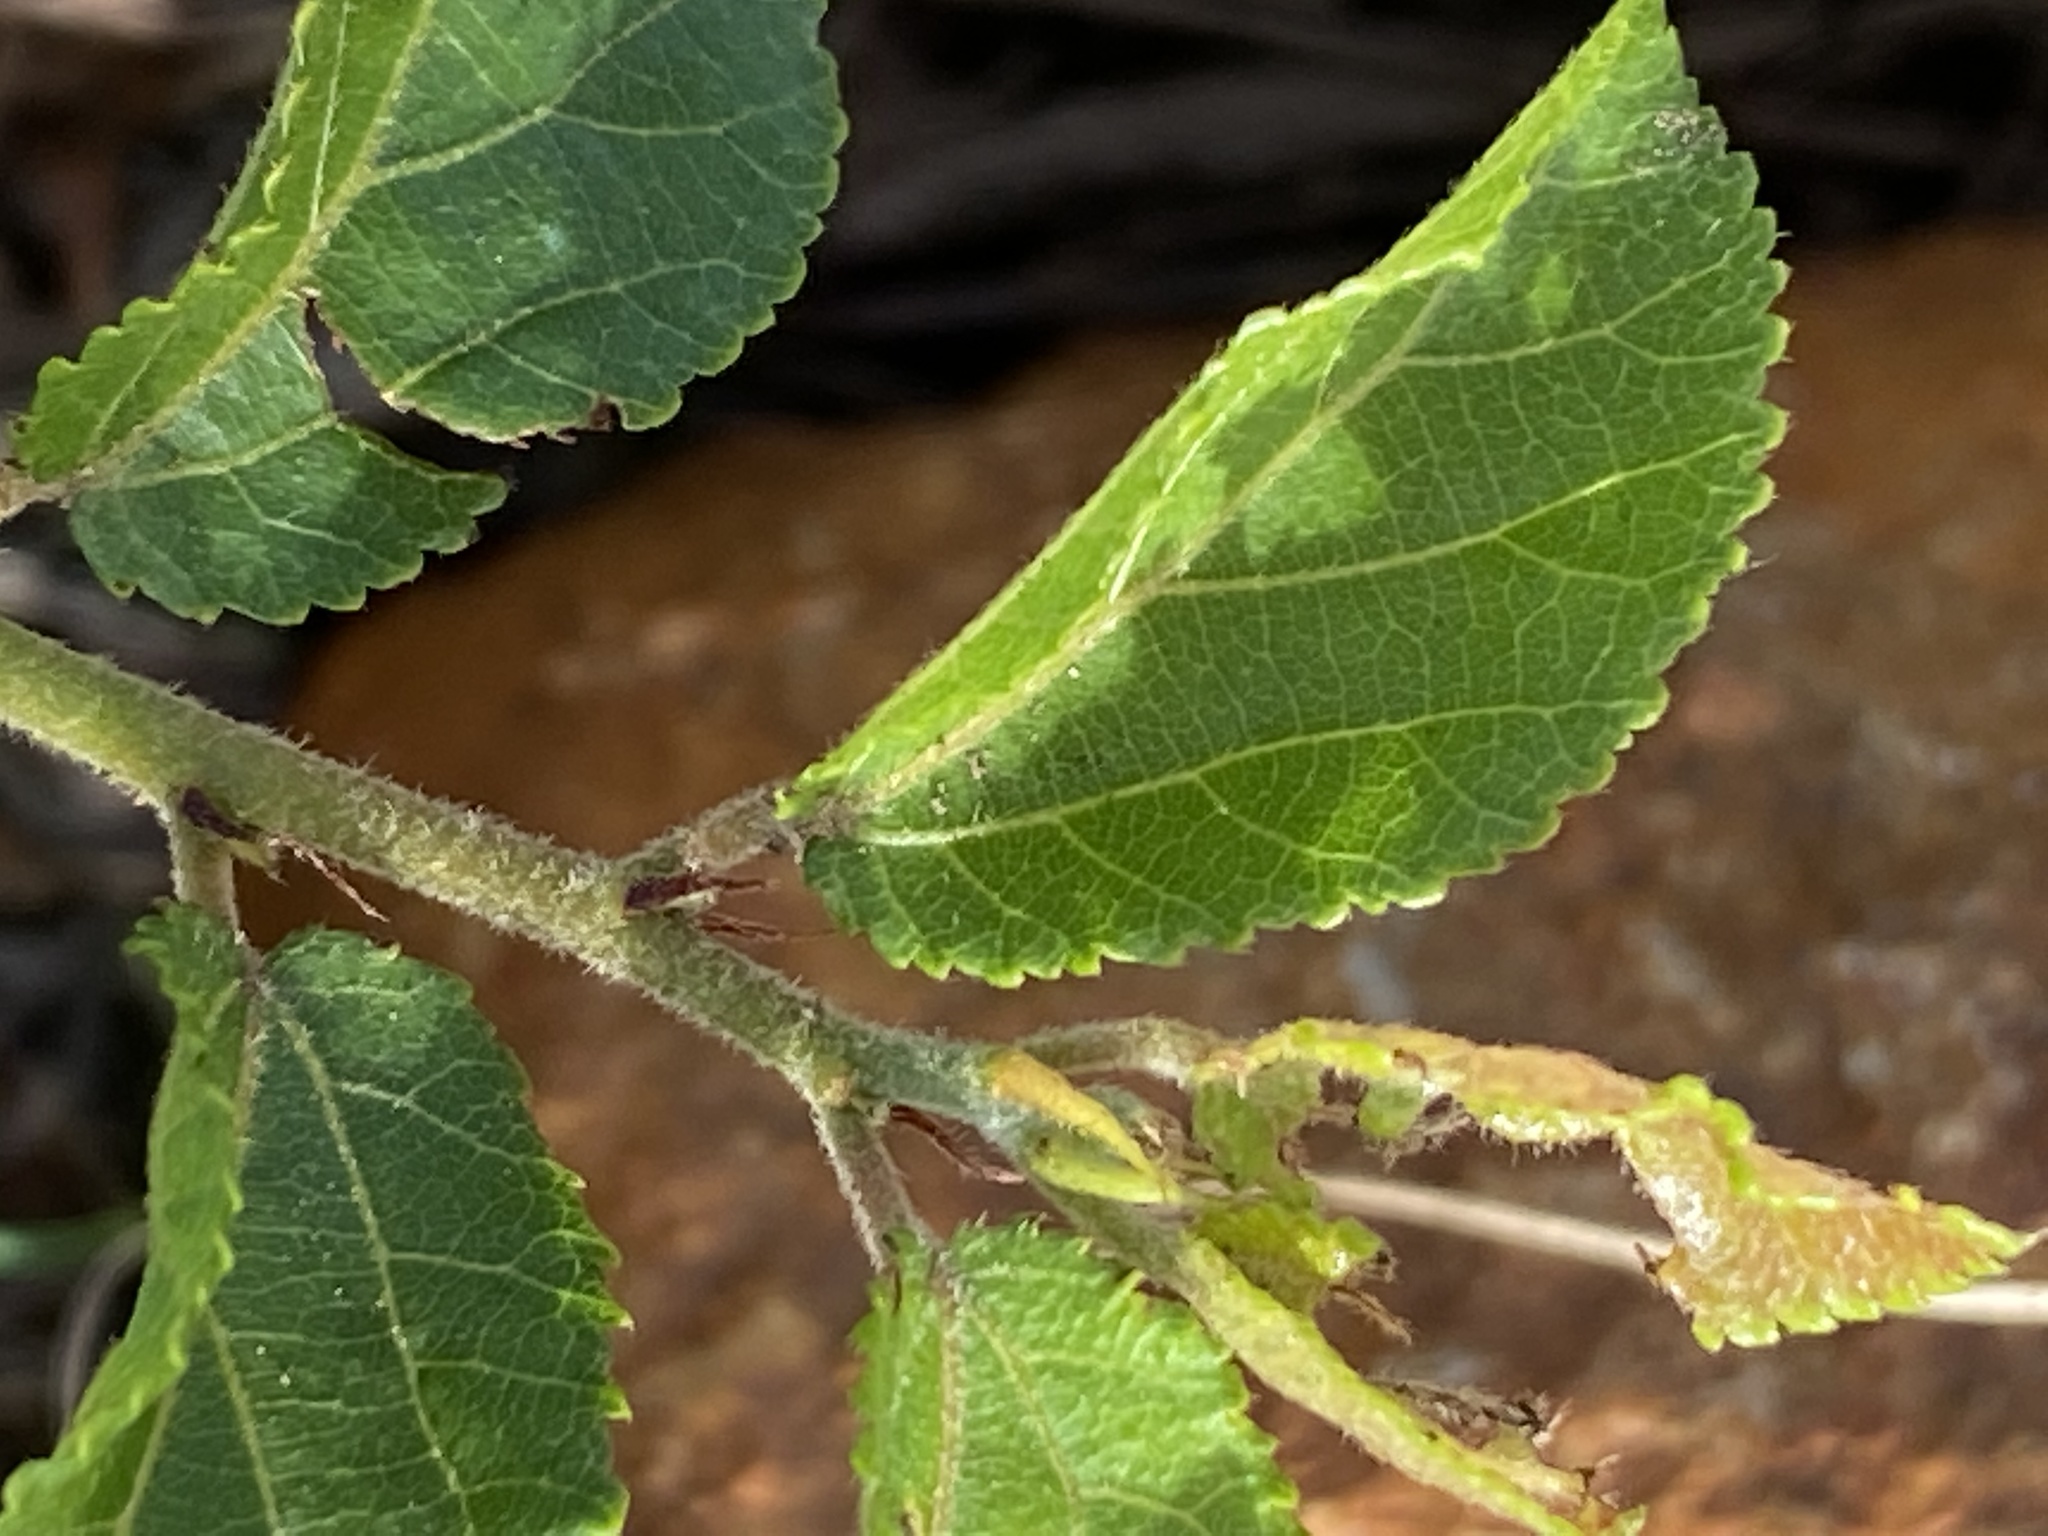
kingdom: Plantae
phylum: Tracheophyta
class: Magnoliopsida
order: Malvales
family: Malvaceae
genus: Grewia
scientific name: Grewia occidentalis
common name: Crossberry
